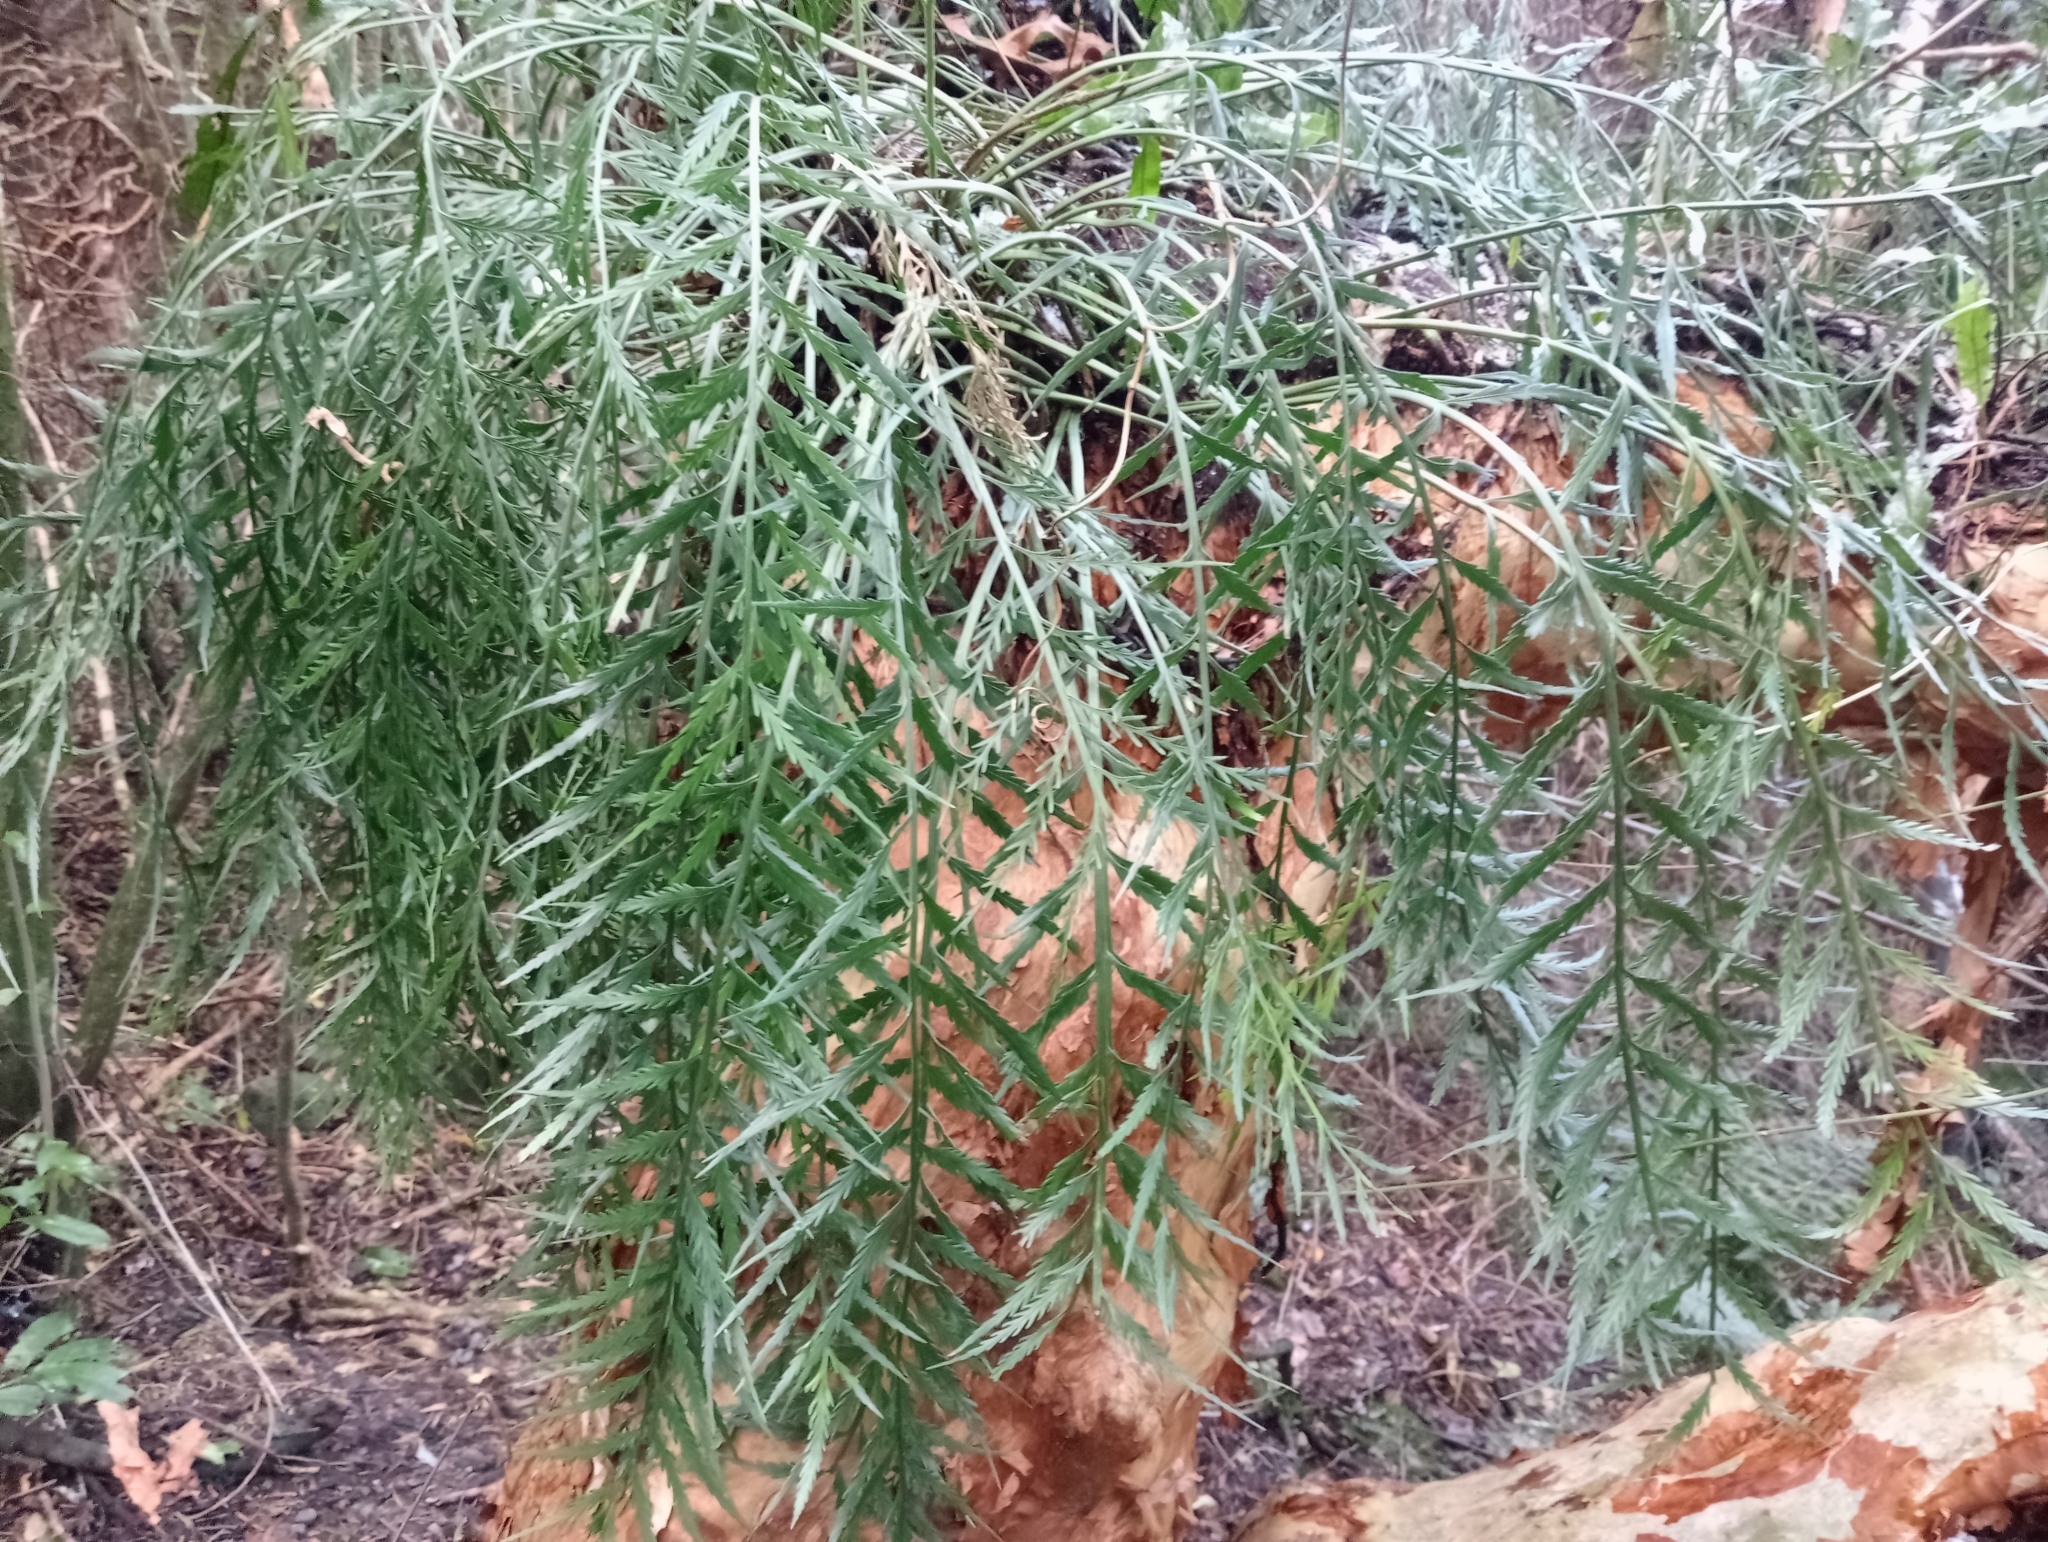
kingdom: Plantae
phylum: Tracheophyta
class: Polypodiopsida
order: Polypodiales
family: Aspleniaceae
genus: Asplenium
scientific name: Asplenium flaccidum
